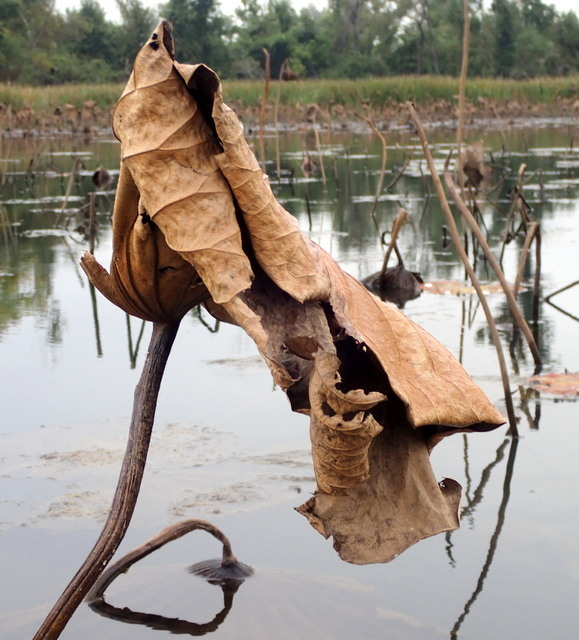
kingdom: Plantae
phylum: Tracheophyta
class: Magnoliopsida
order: Proteales
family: Nelumbonaceae
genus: Nelumbo
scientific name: Nelumbo lutea
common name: American lotus
